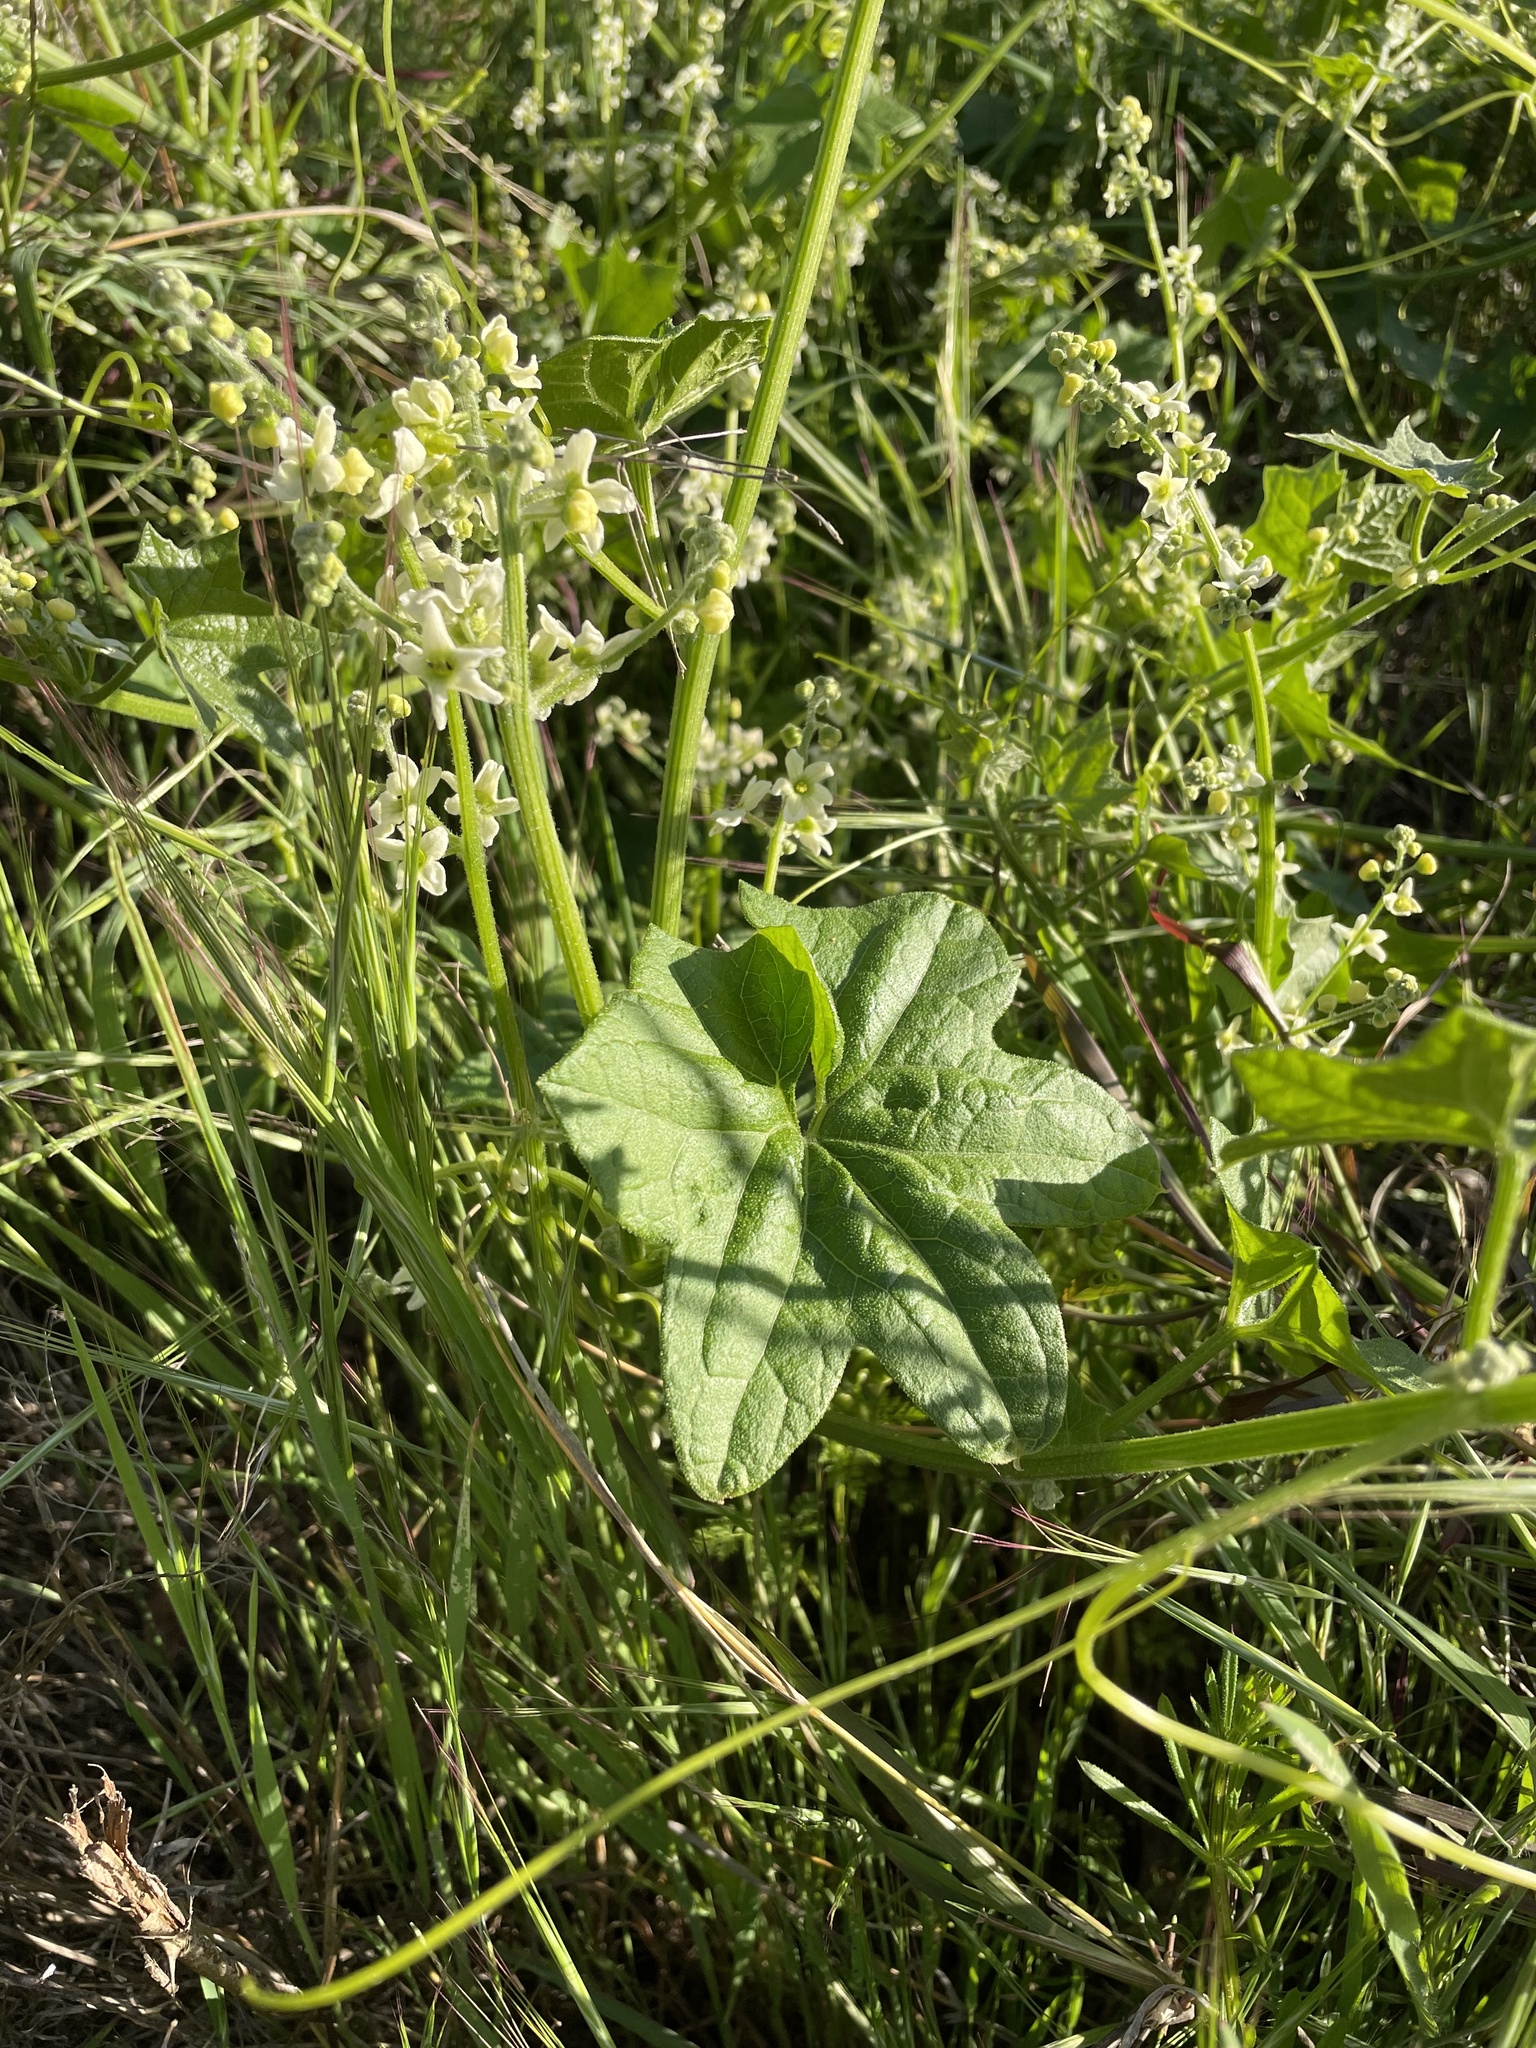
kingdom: Plantae
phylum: Tracheophyta
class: Magnoliopsida
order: Cucurbitales
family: Cucurbitaceae
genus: Marah
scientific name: Marah fabacea
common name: California manroot
